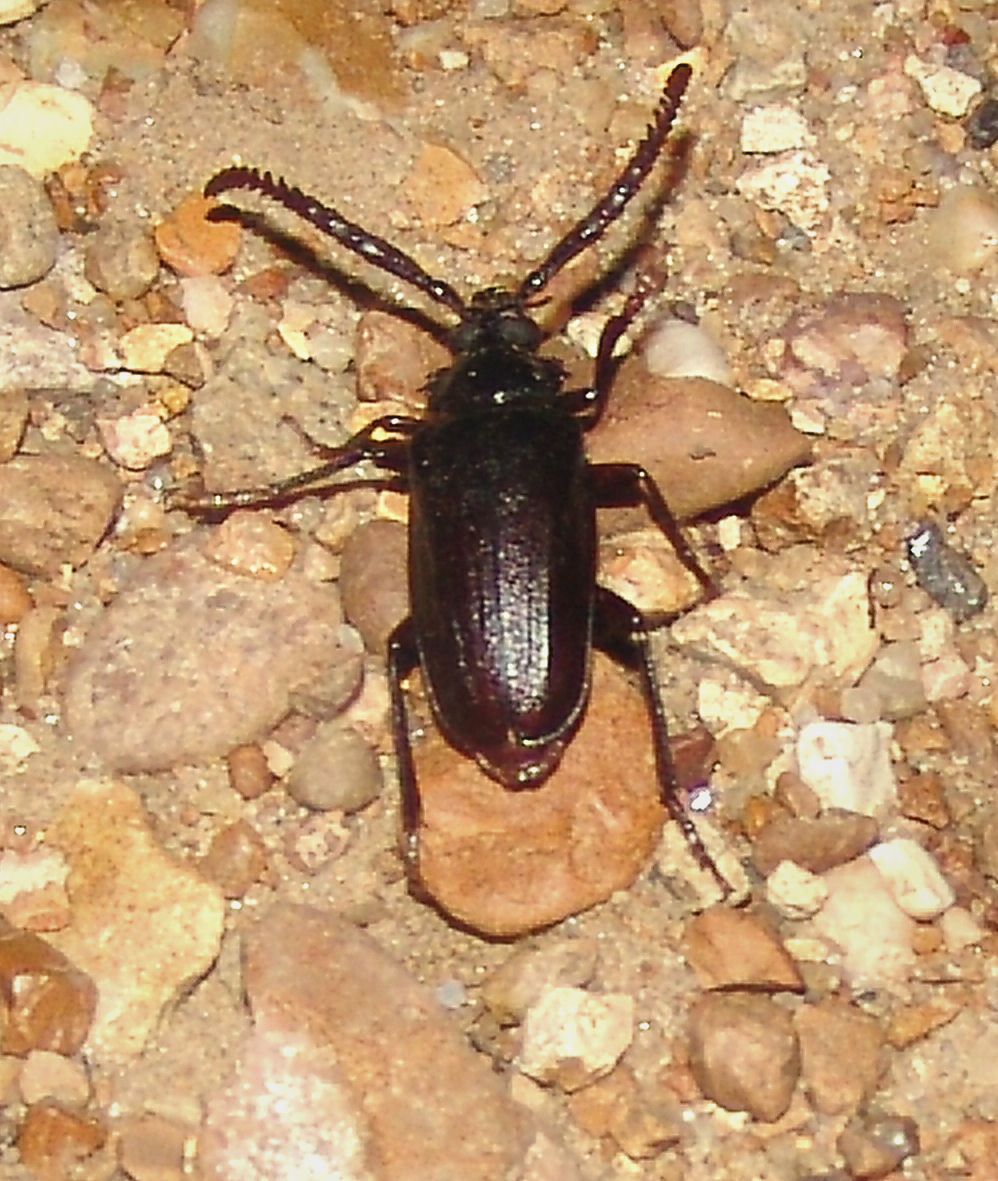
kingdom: Animalia
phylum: Arthropoda
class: Insecta
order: Coleoptera
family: Cerambycidae
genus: Prionus
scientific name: Prionus imbricornis
